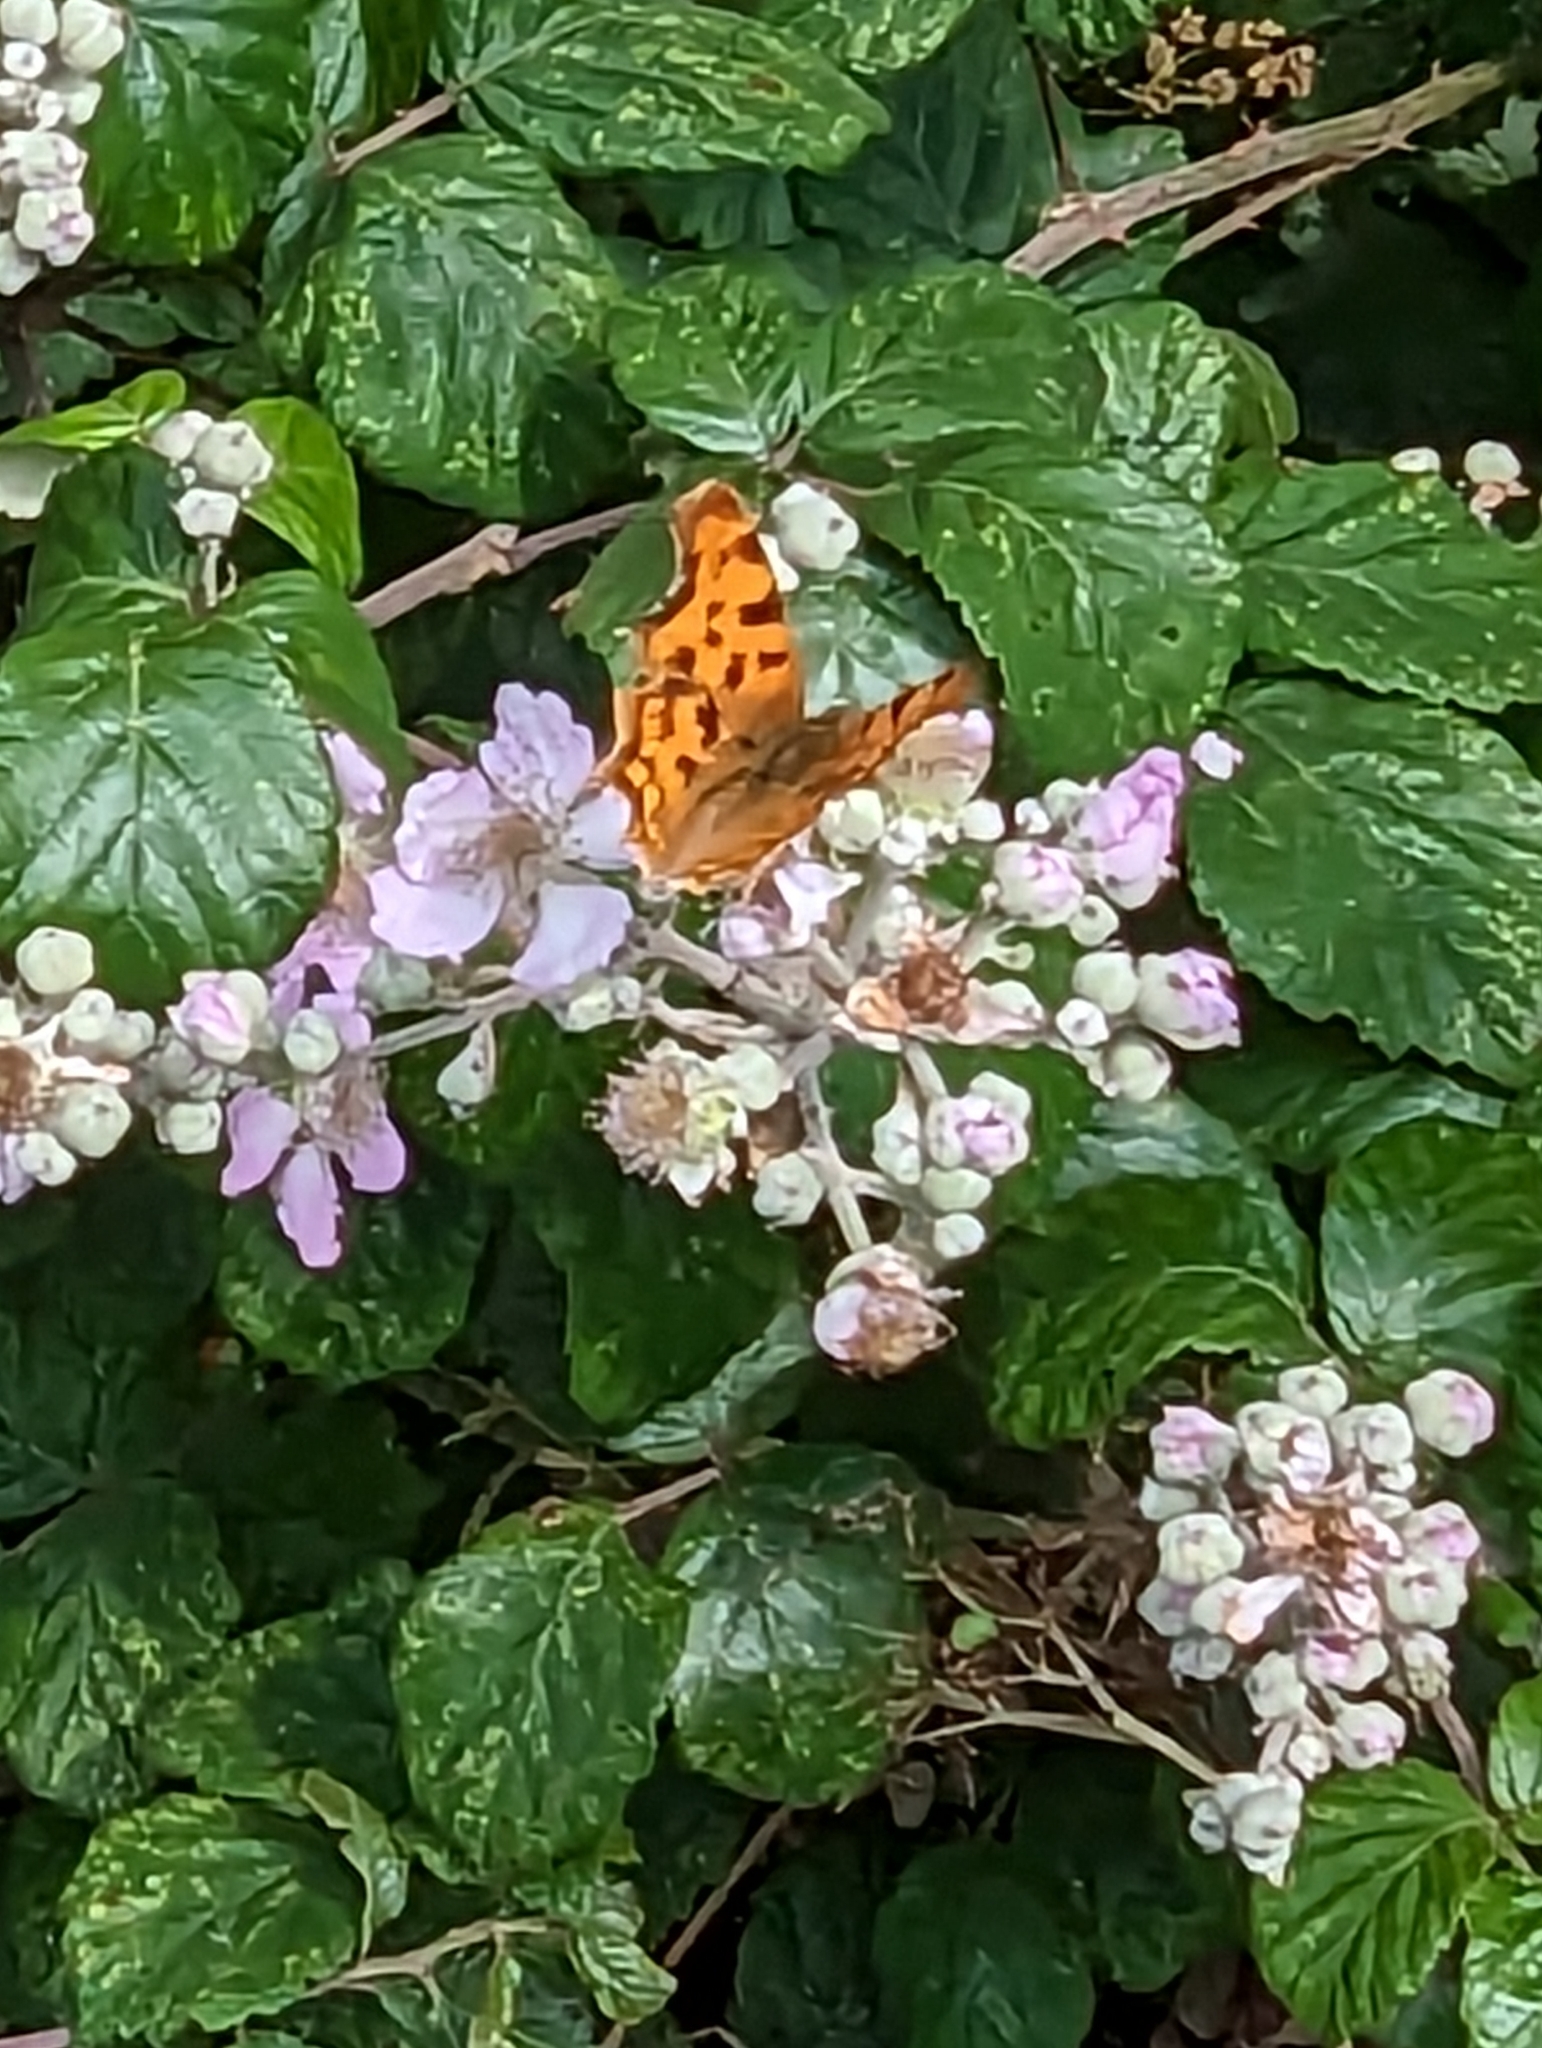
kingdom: Animalia
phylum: Arthropoda
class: Insecta
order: Lepidoptera
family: Nymphalidae
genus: Polygonia
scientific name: Polygonia c-album
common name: Comma
